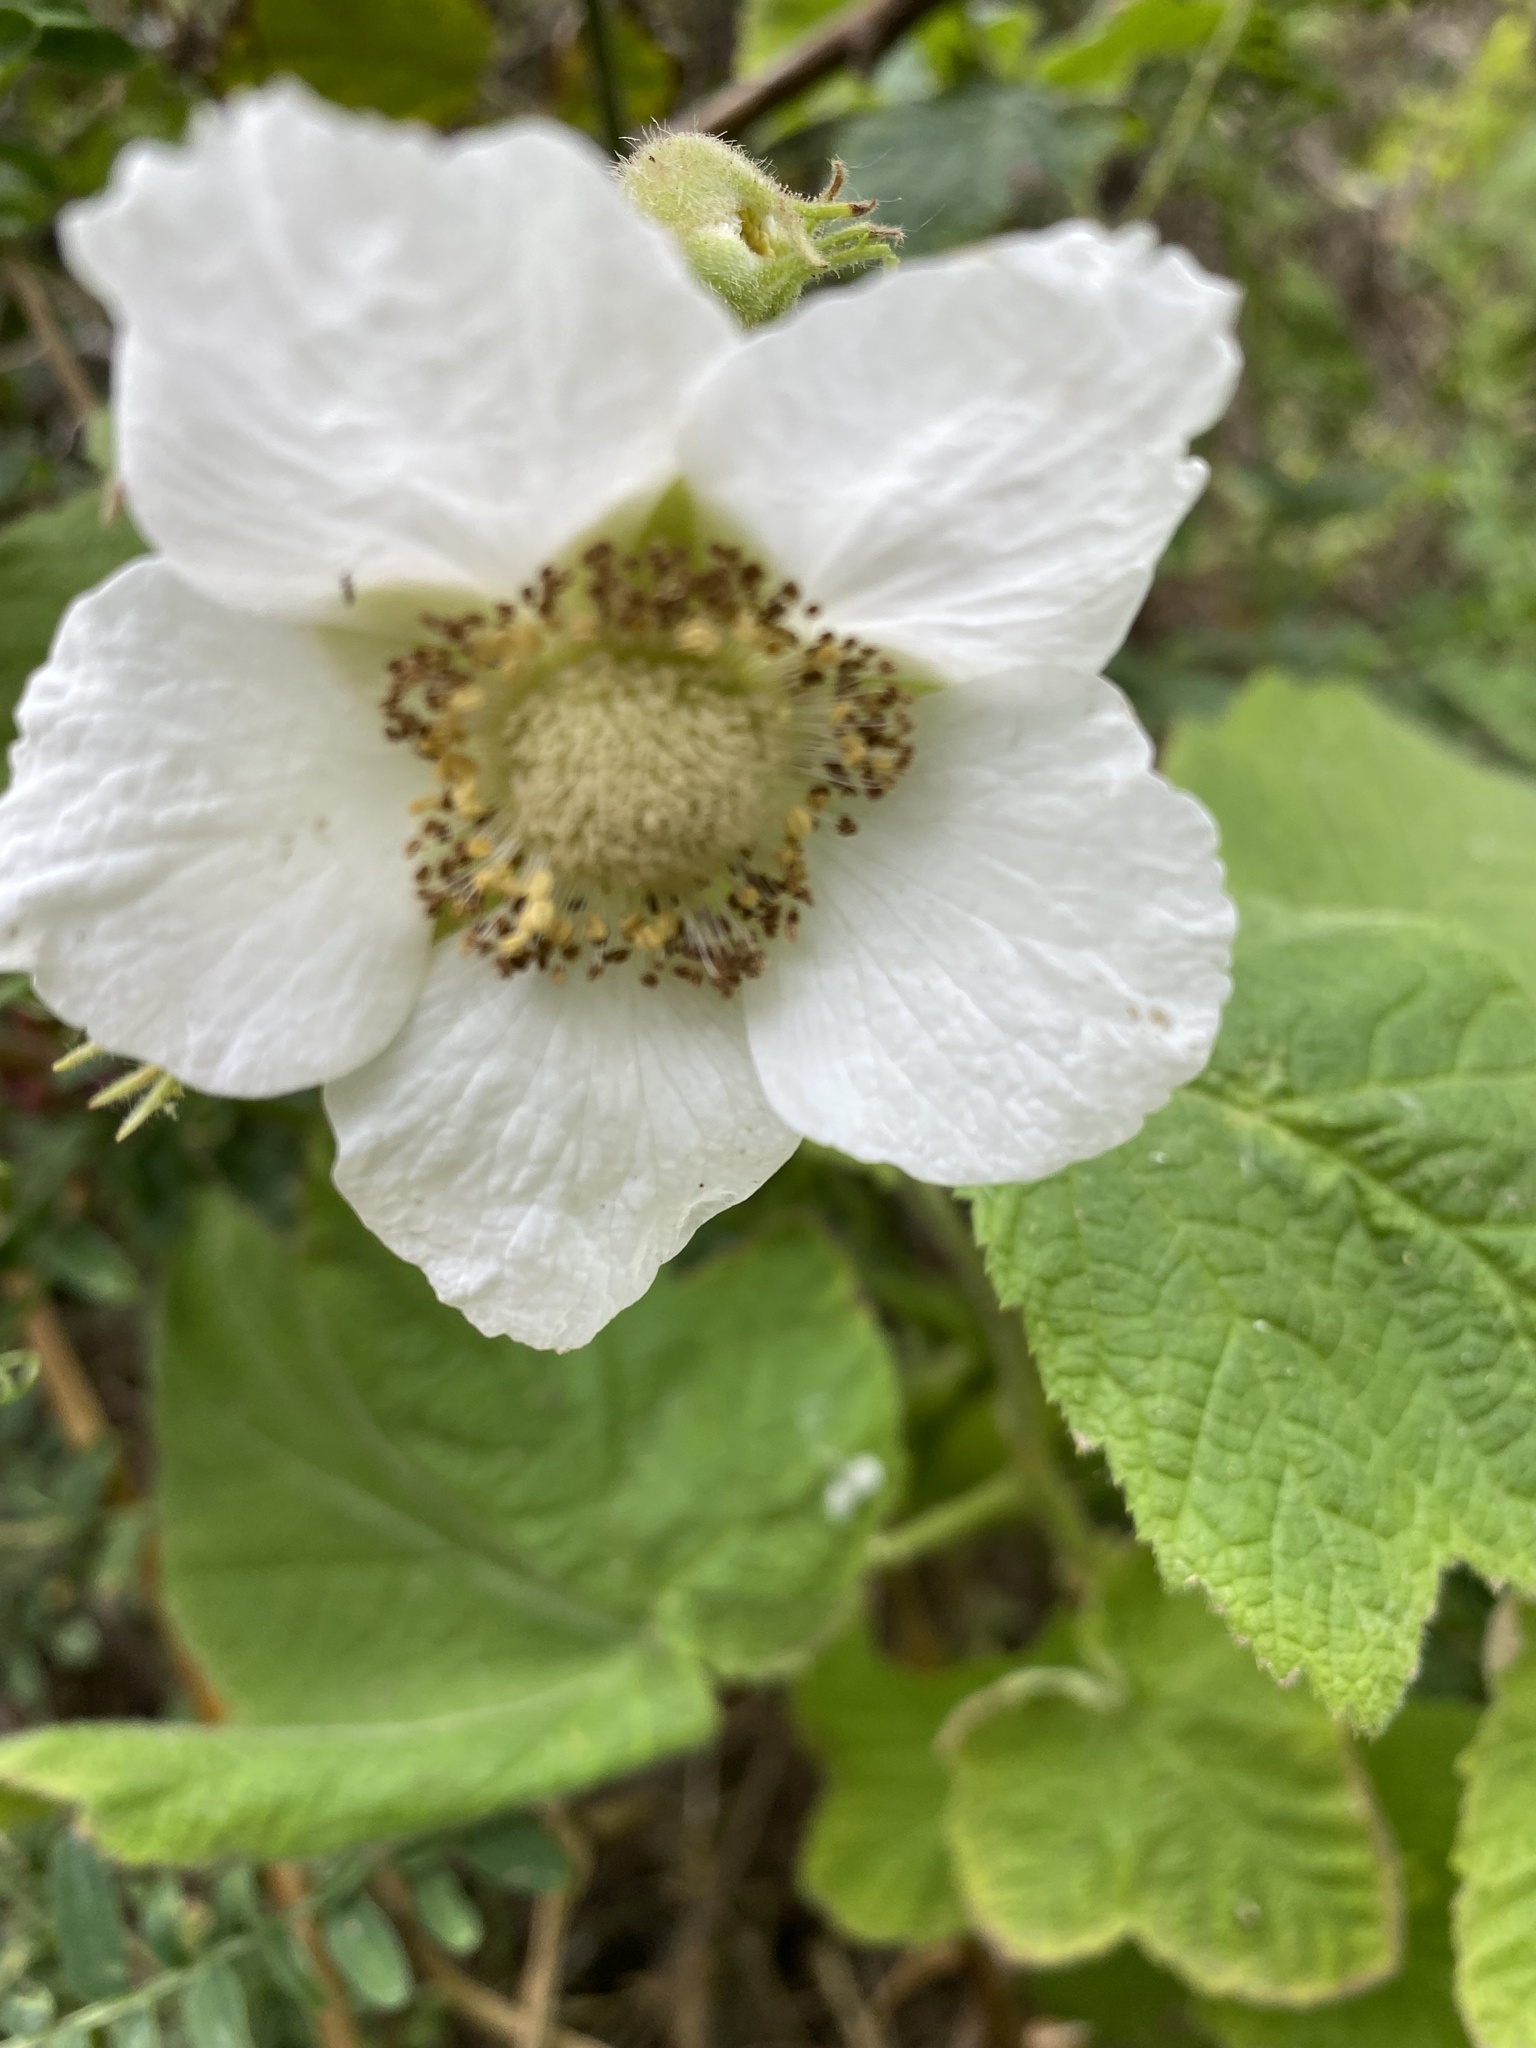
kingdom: Plantae
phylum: Tracheophyta
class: Magnoliopsida
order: Rosales
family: Rosaceae
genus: Rubus
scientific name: Rubus parviflorus
